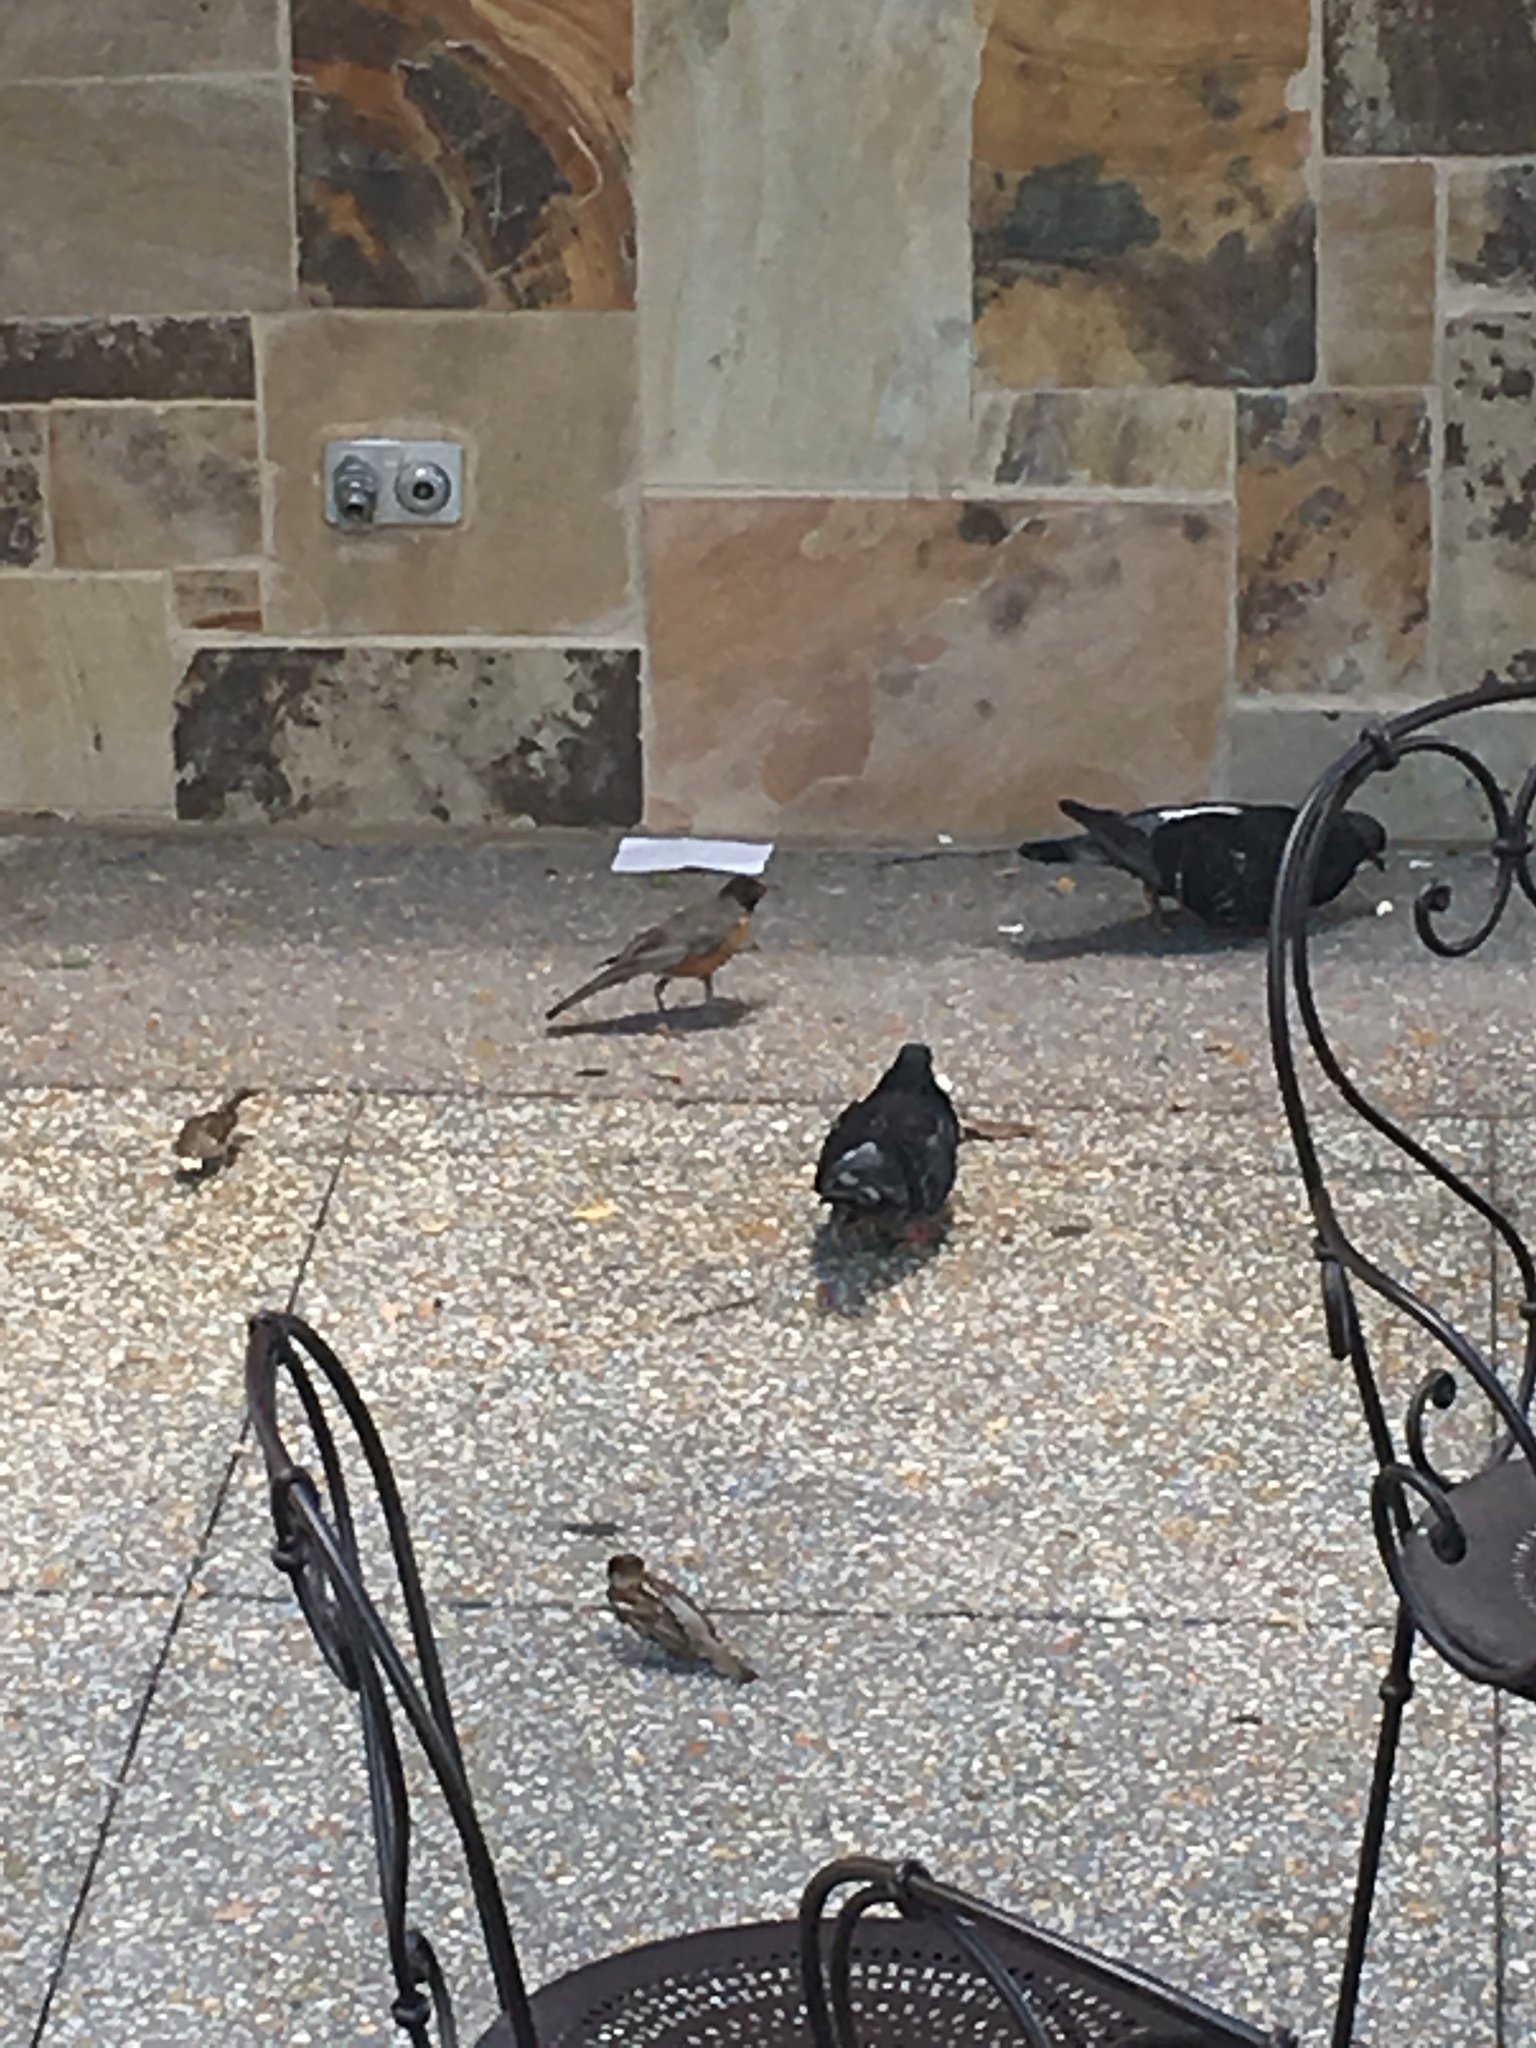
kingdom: Animalia
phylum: Chordata
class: Aves
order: Passeriformes
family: Turdidae
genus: Turdus
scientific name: Turdus migratorius
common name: American robin
